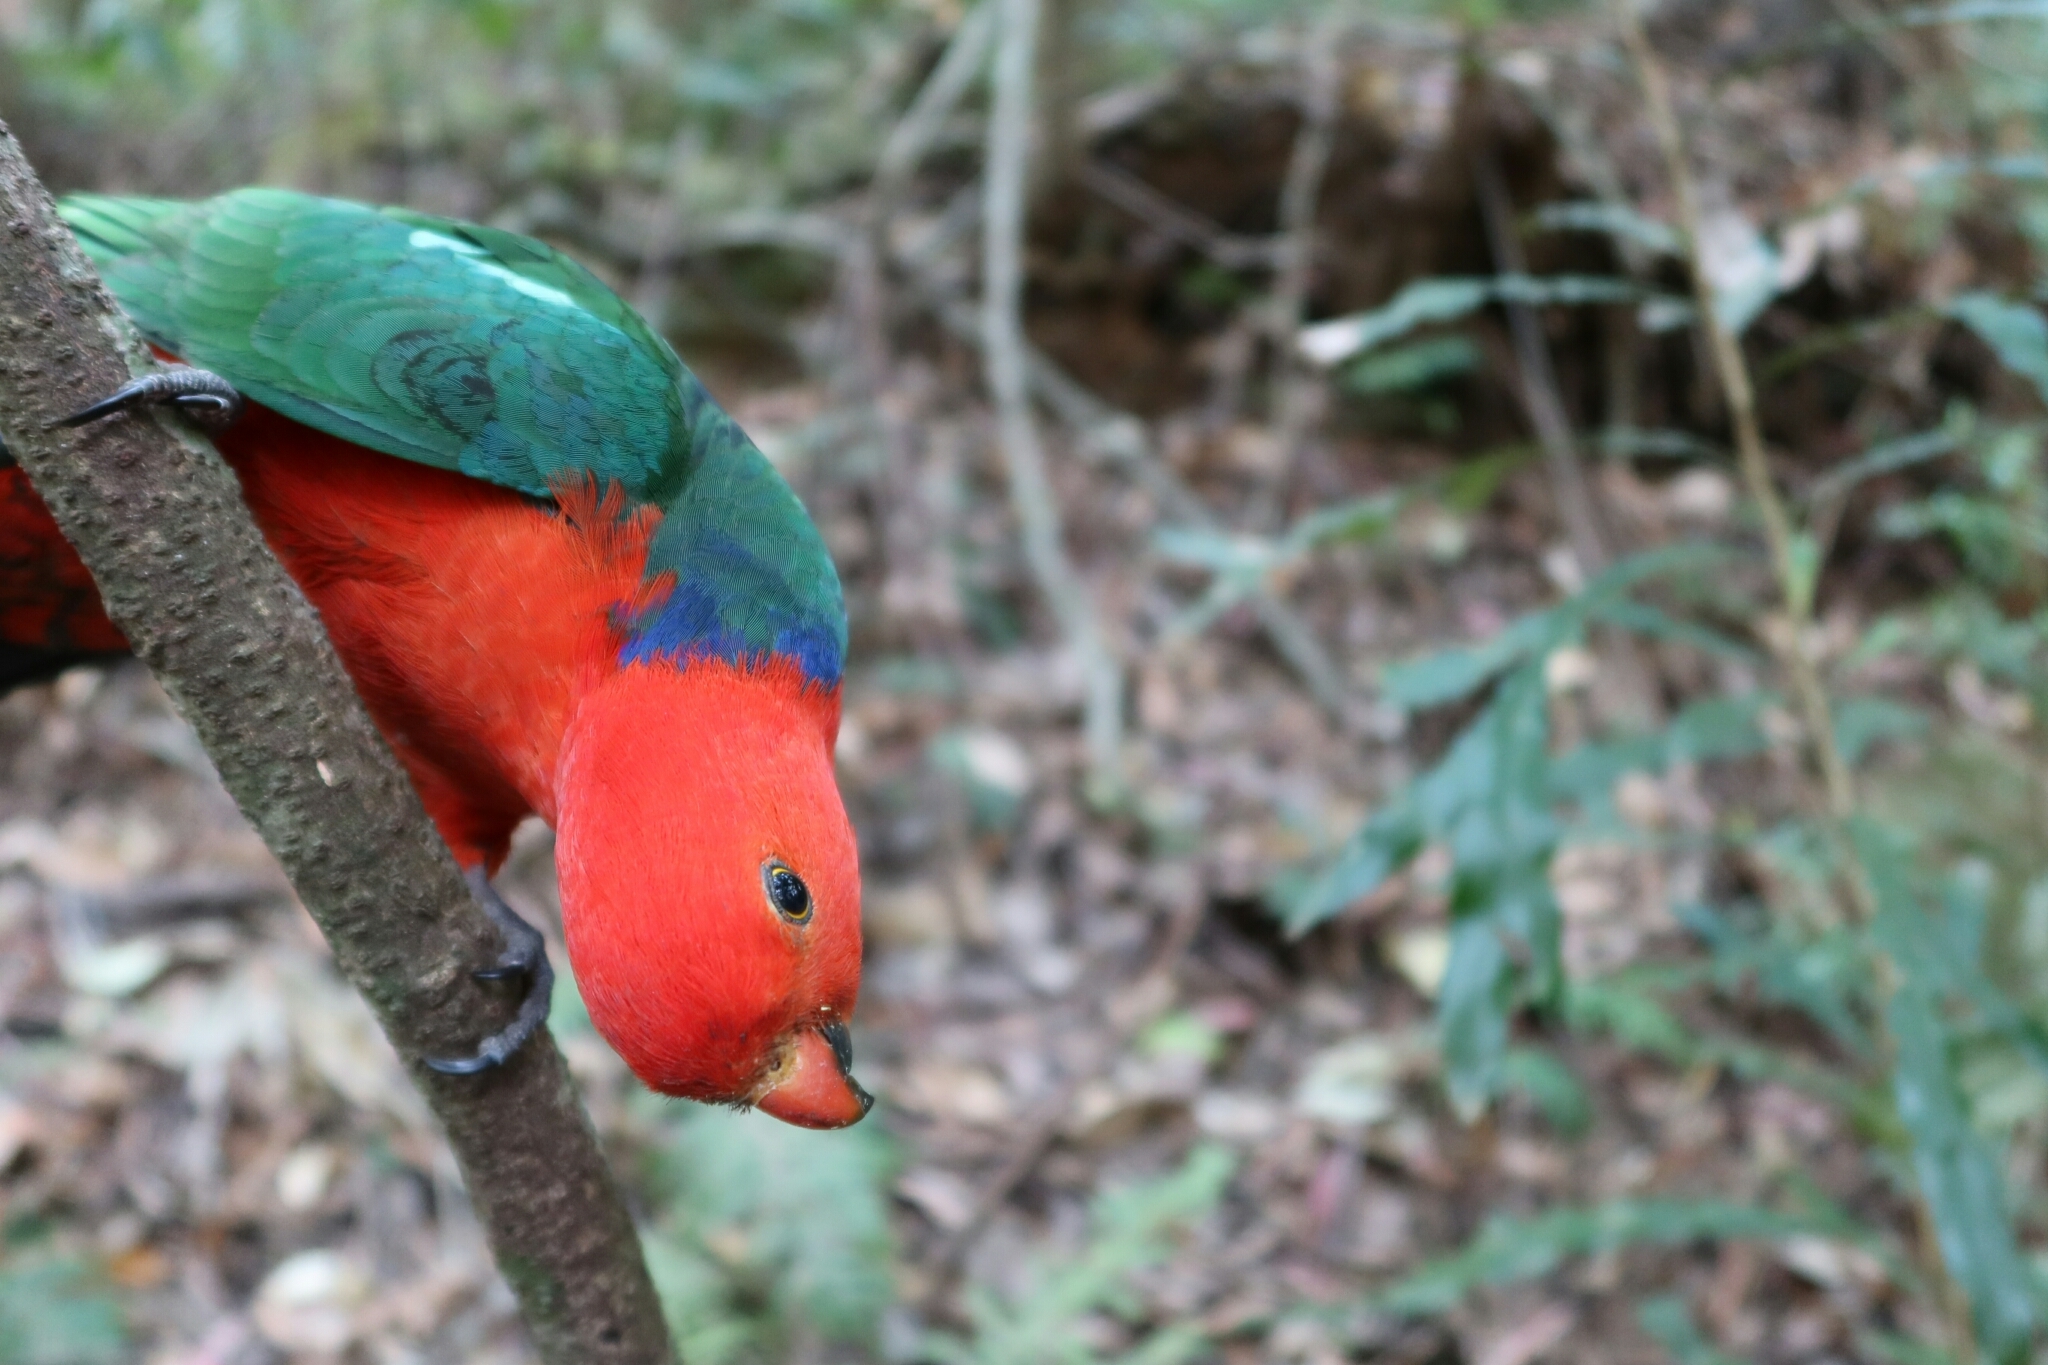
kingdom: Animalia
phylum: Chordata
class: Aves
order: Psittaciformes
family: Psittacidae
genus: Alisterus
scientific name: Alisterus scapularis
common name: Australian king parrot
